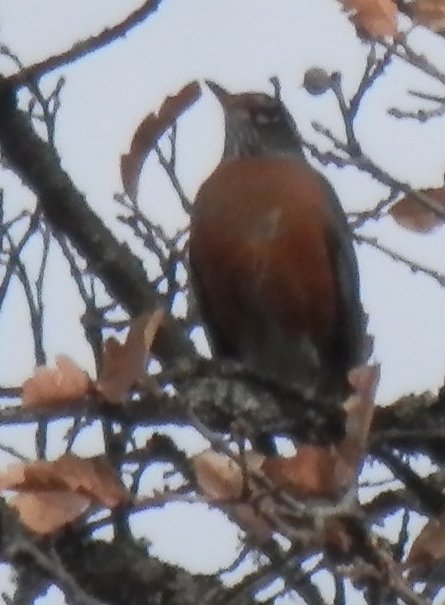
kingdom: Animalia
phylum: Chordata
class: Aves
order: Passeriformes
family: Turdidae
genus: Turdus
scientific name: Turdus migratorius
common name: American robin
